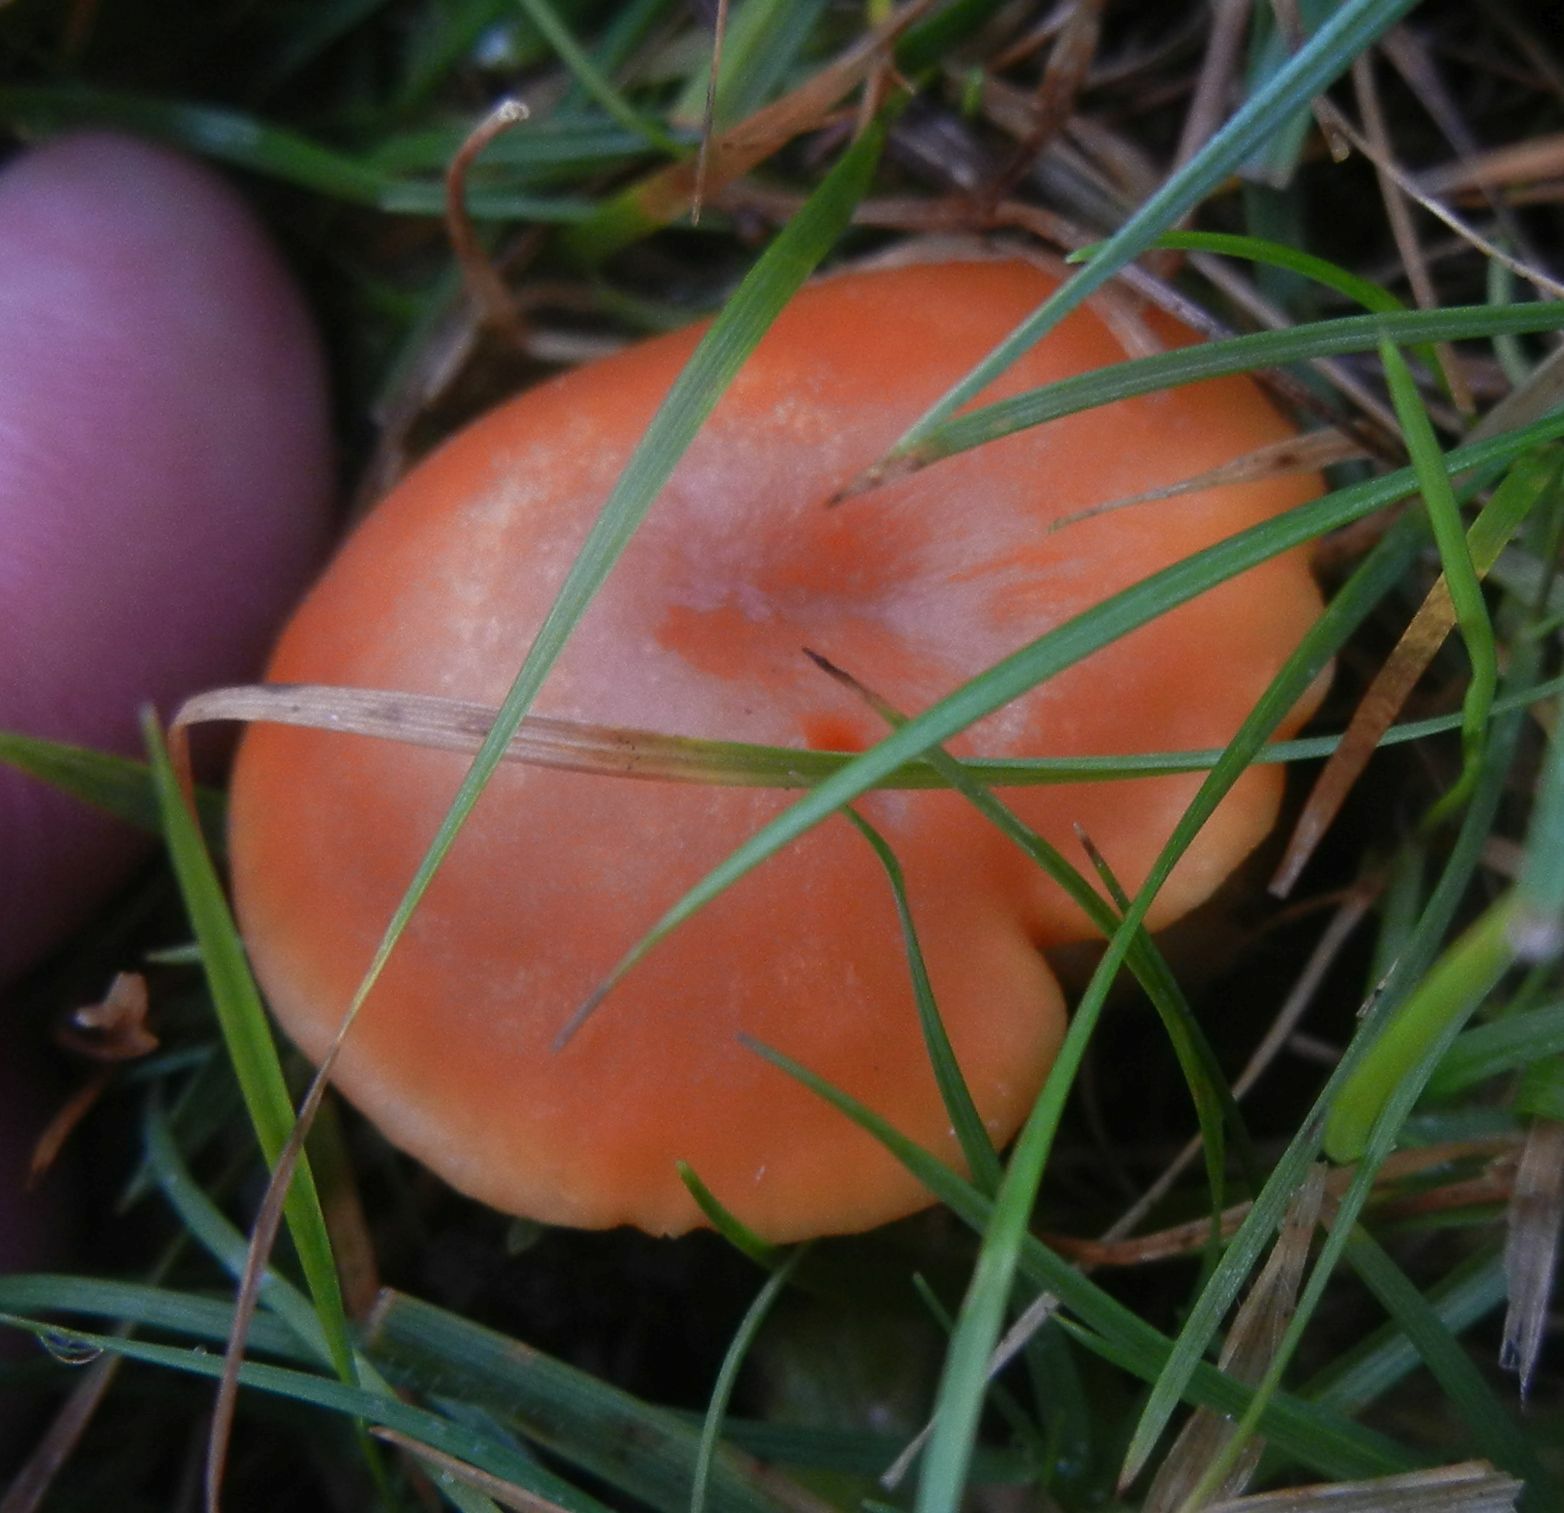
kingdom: Fungi
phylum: Basidiomycota
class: Agaricomycetes
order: Agaricales
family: Hygrophoraceae
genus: Cuphophyllus
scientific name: Cuphophyllus pratensis
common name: Meadow waxcap
